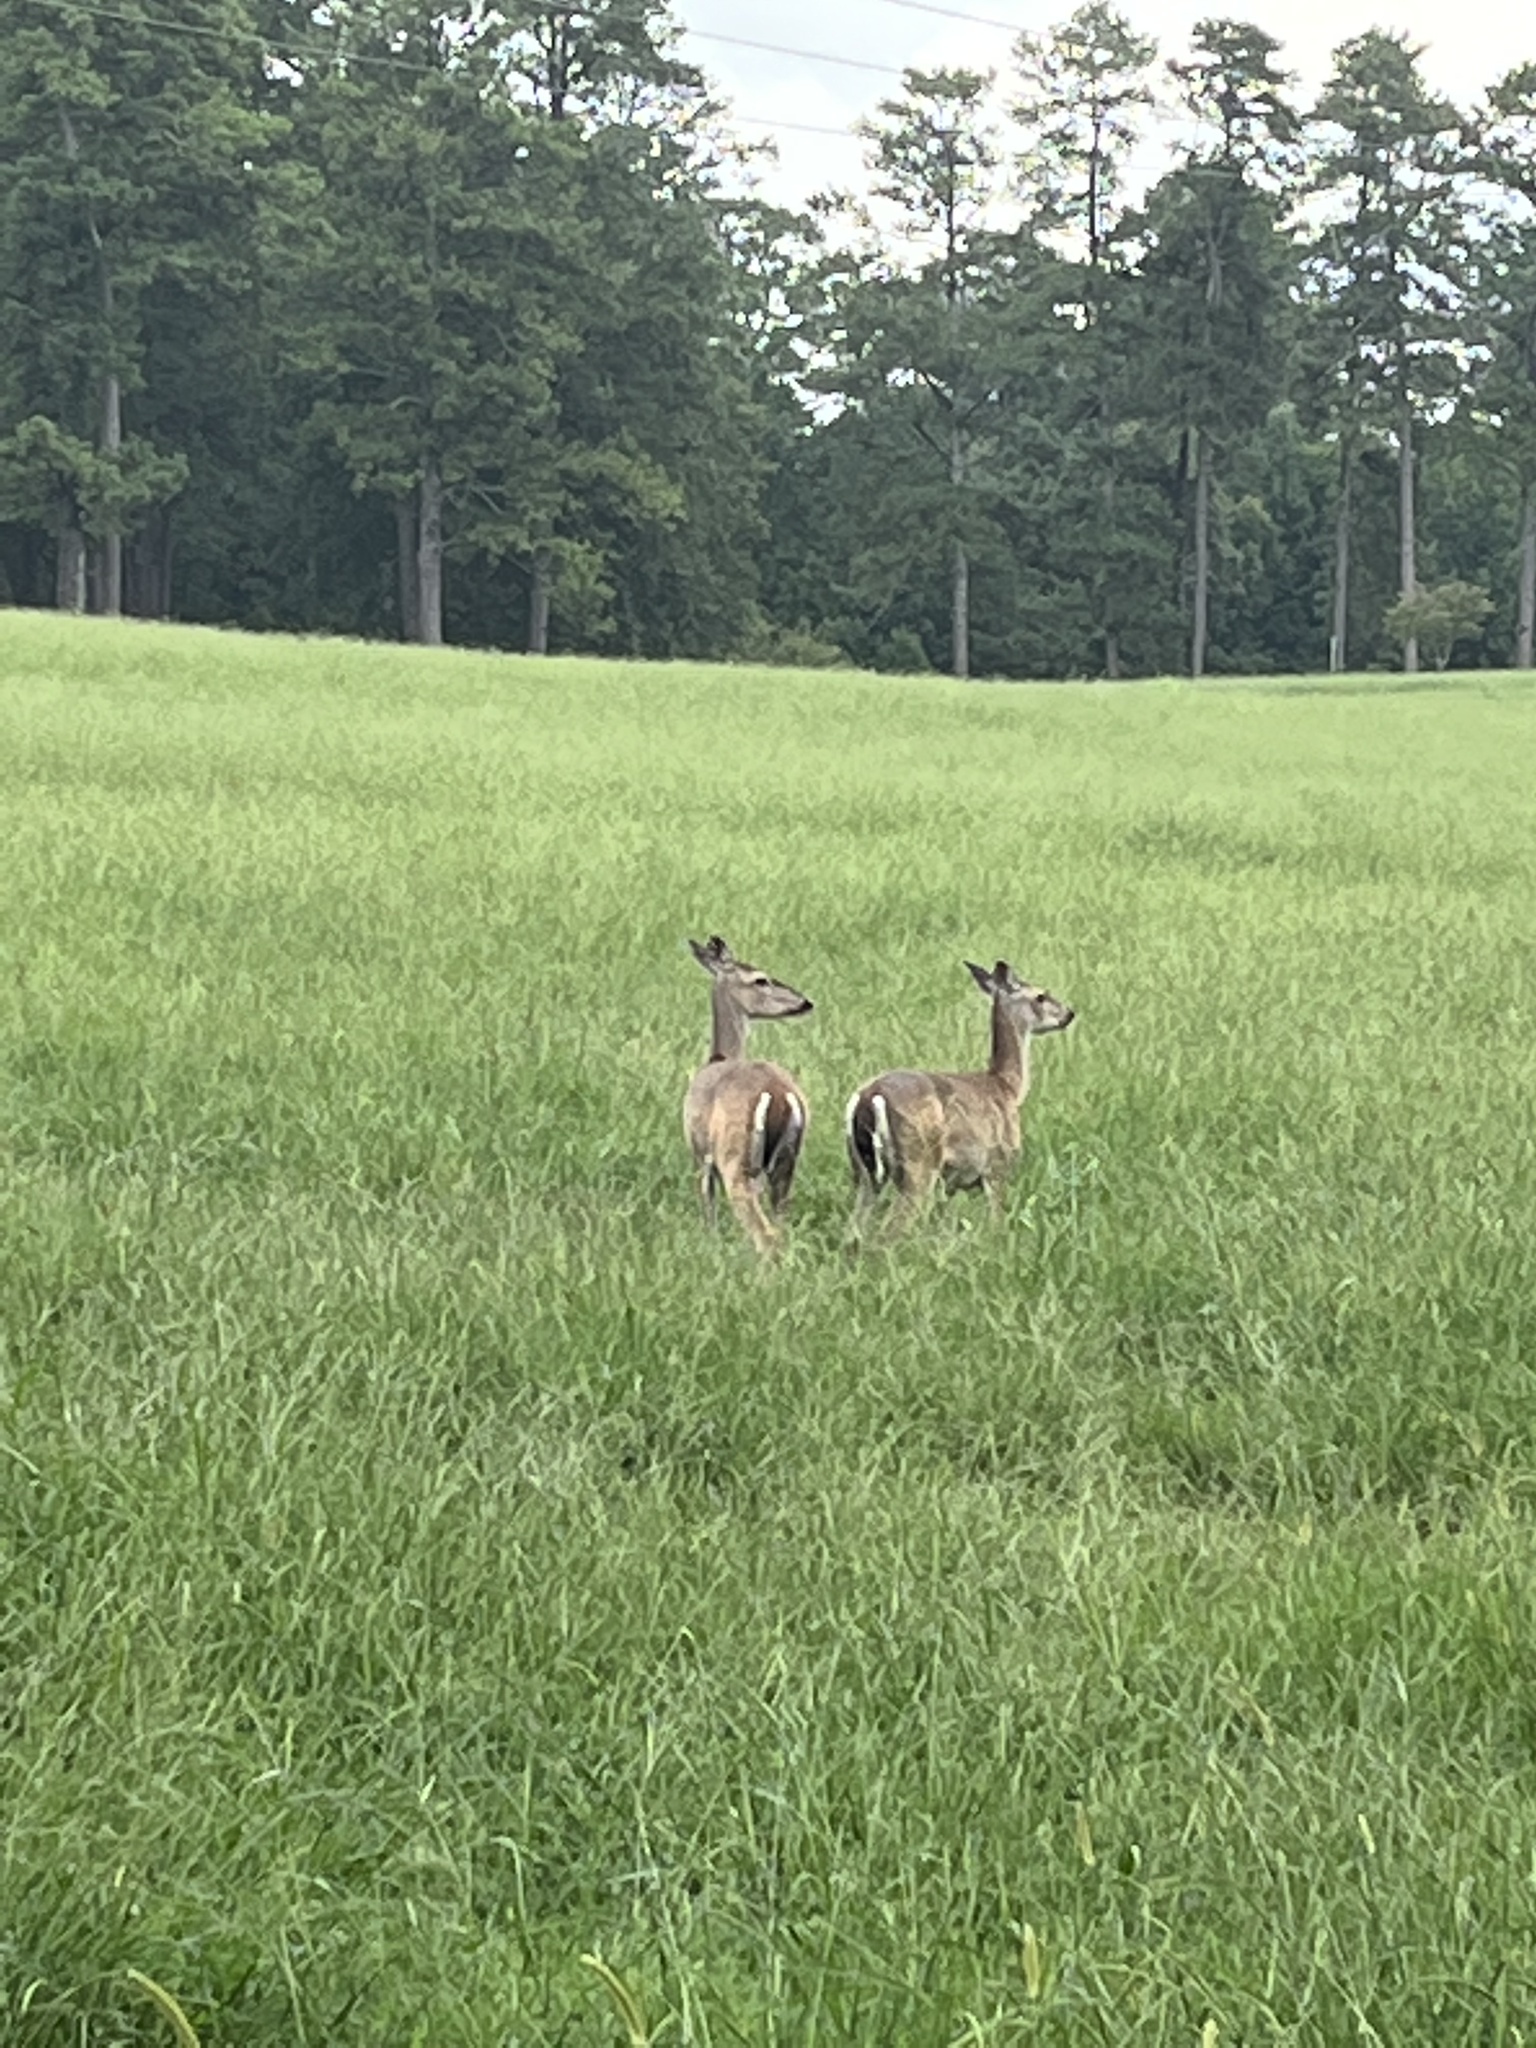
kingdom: Animalia
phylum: Chordata
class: Mammalia
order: Artiodactyla
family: Cervidae
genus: Odocoileus
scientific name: Odocoileus virginianus
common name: White-tailed deer
